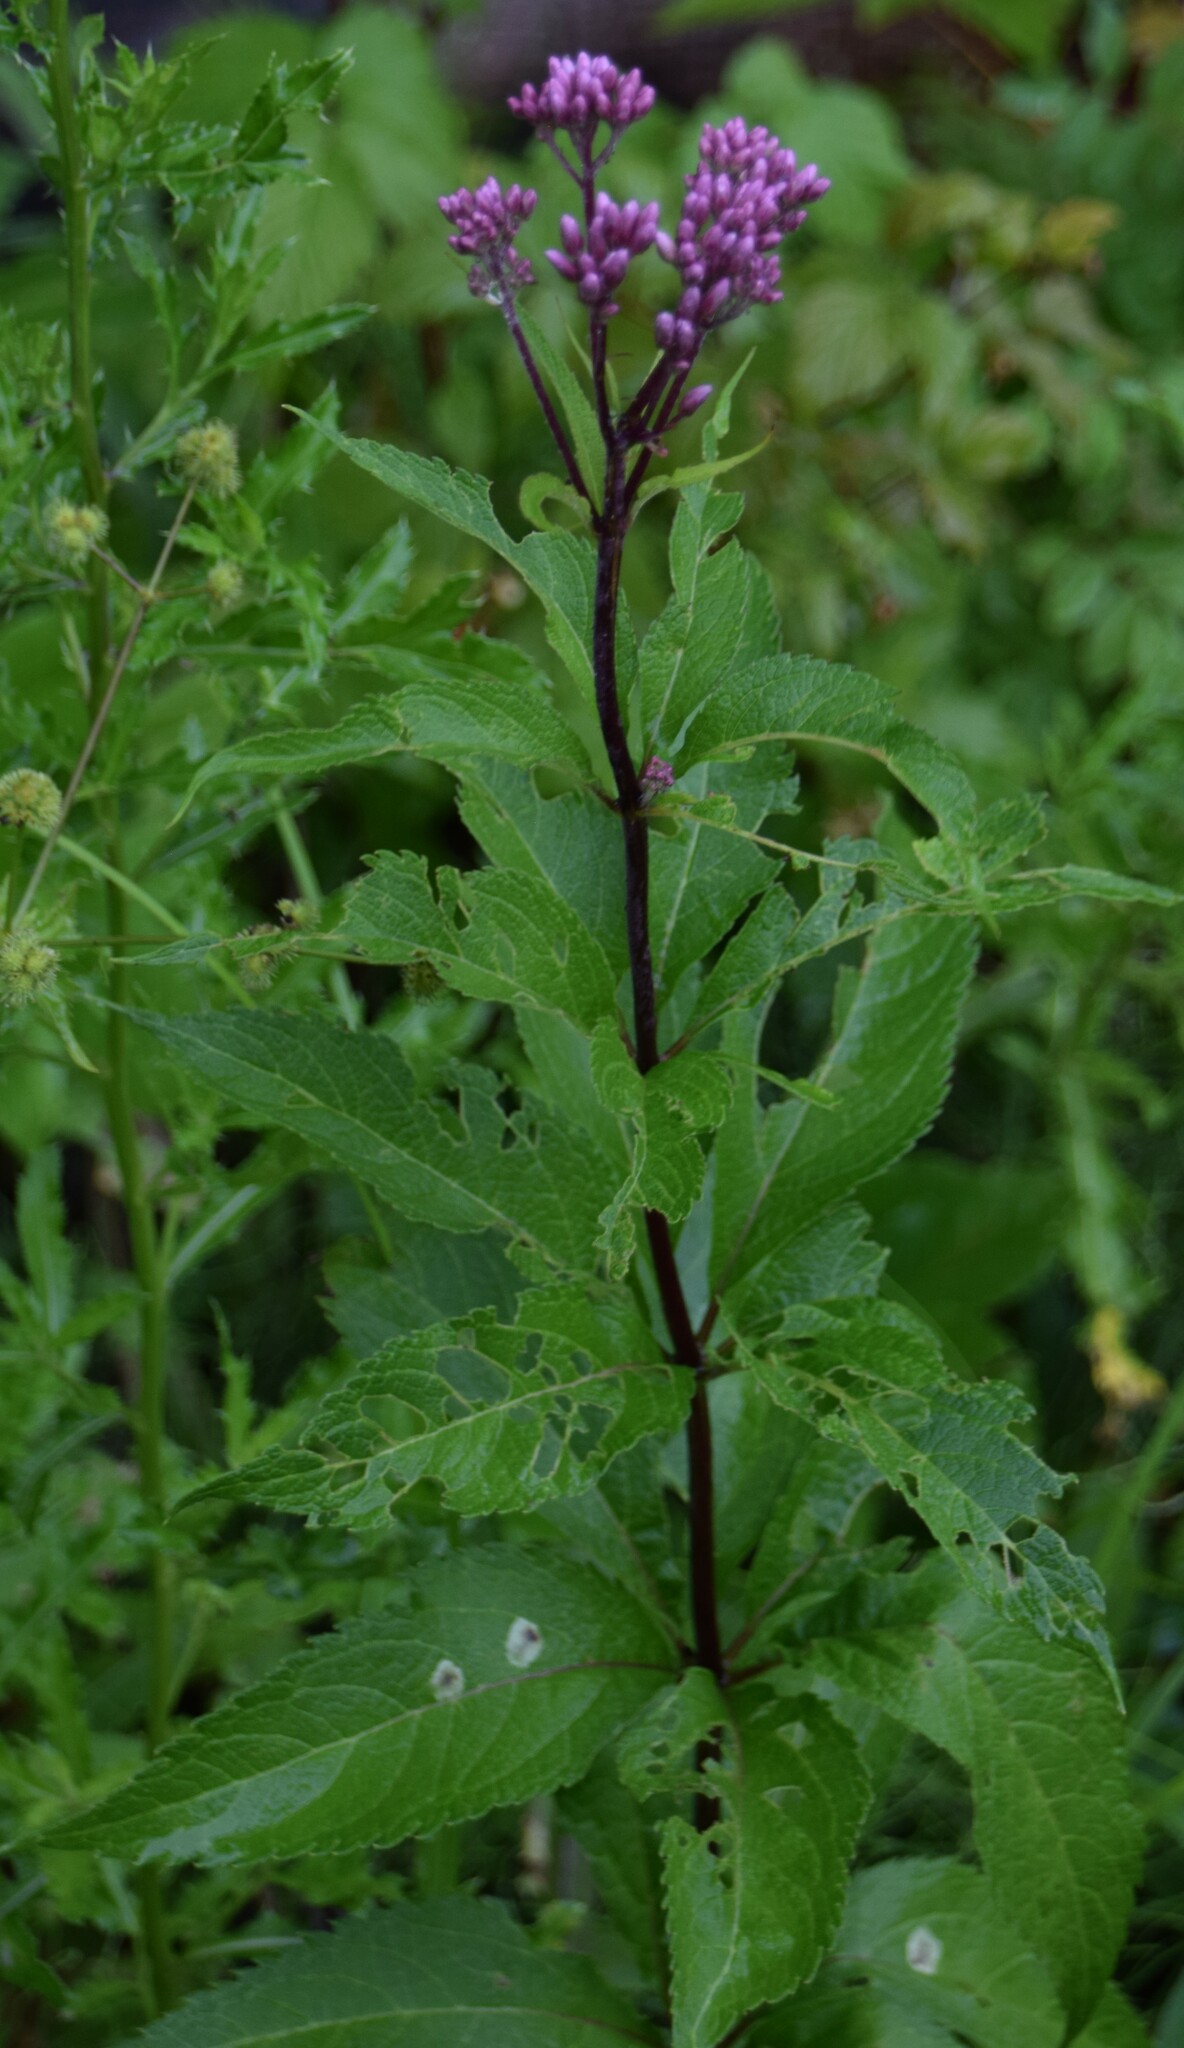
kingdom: Plantae
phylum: Tracheophyta
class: Magnoliopsida
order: Asterales
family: Asteraceae
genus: Eutrochium
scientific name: Eutrochium maculatum
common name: Spotted joe pye weed
